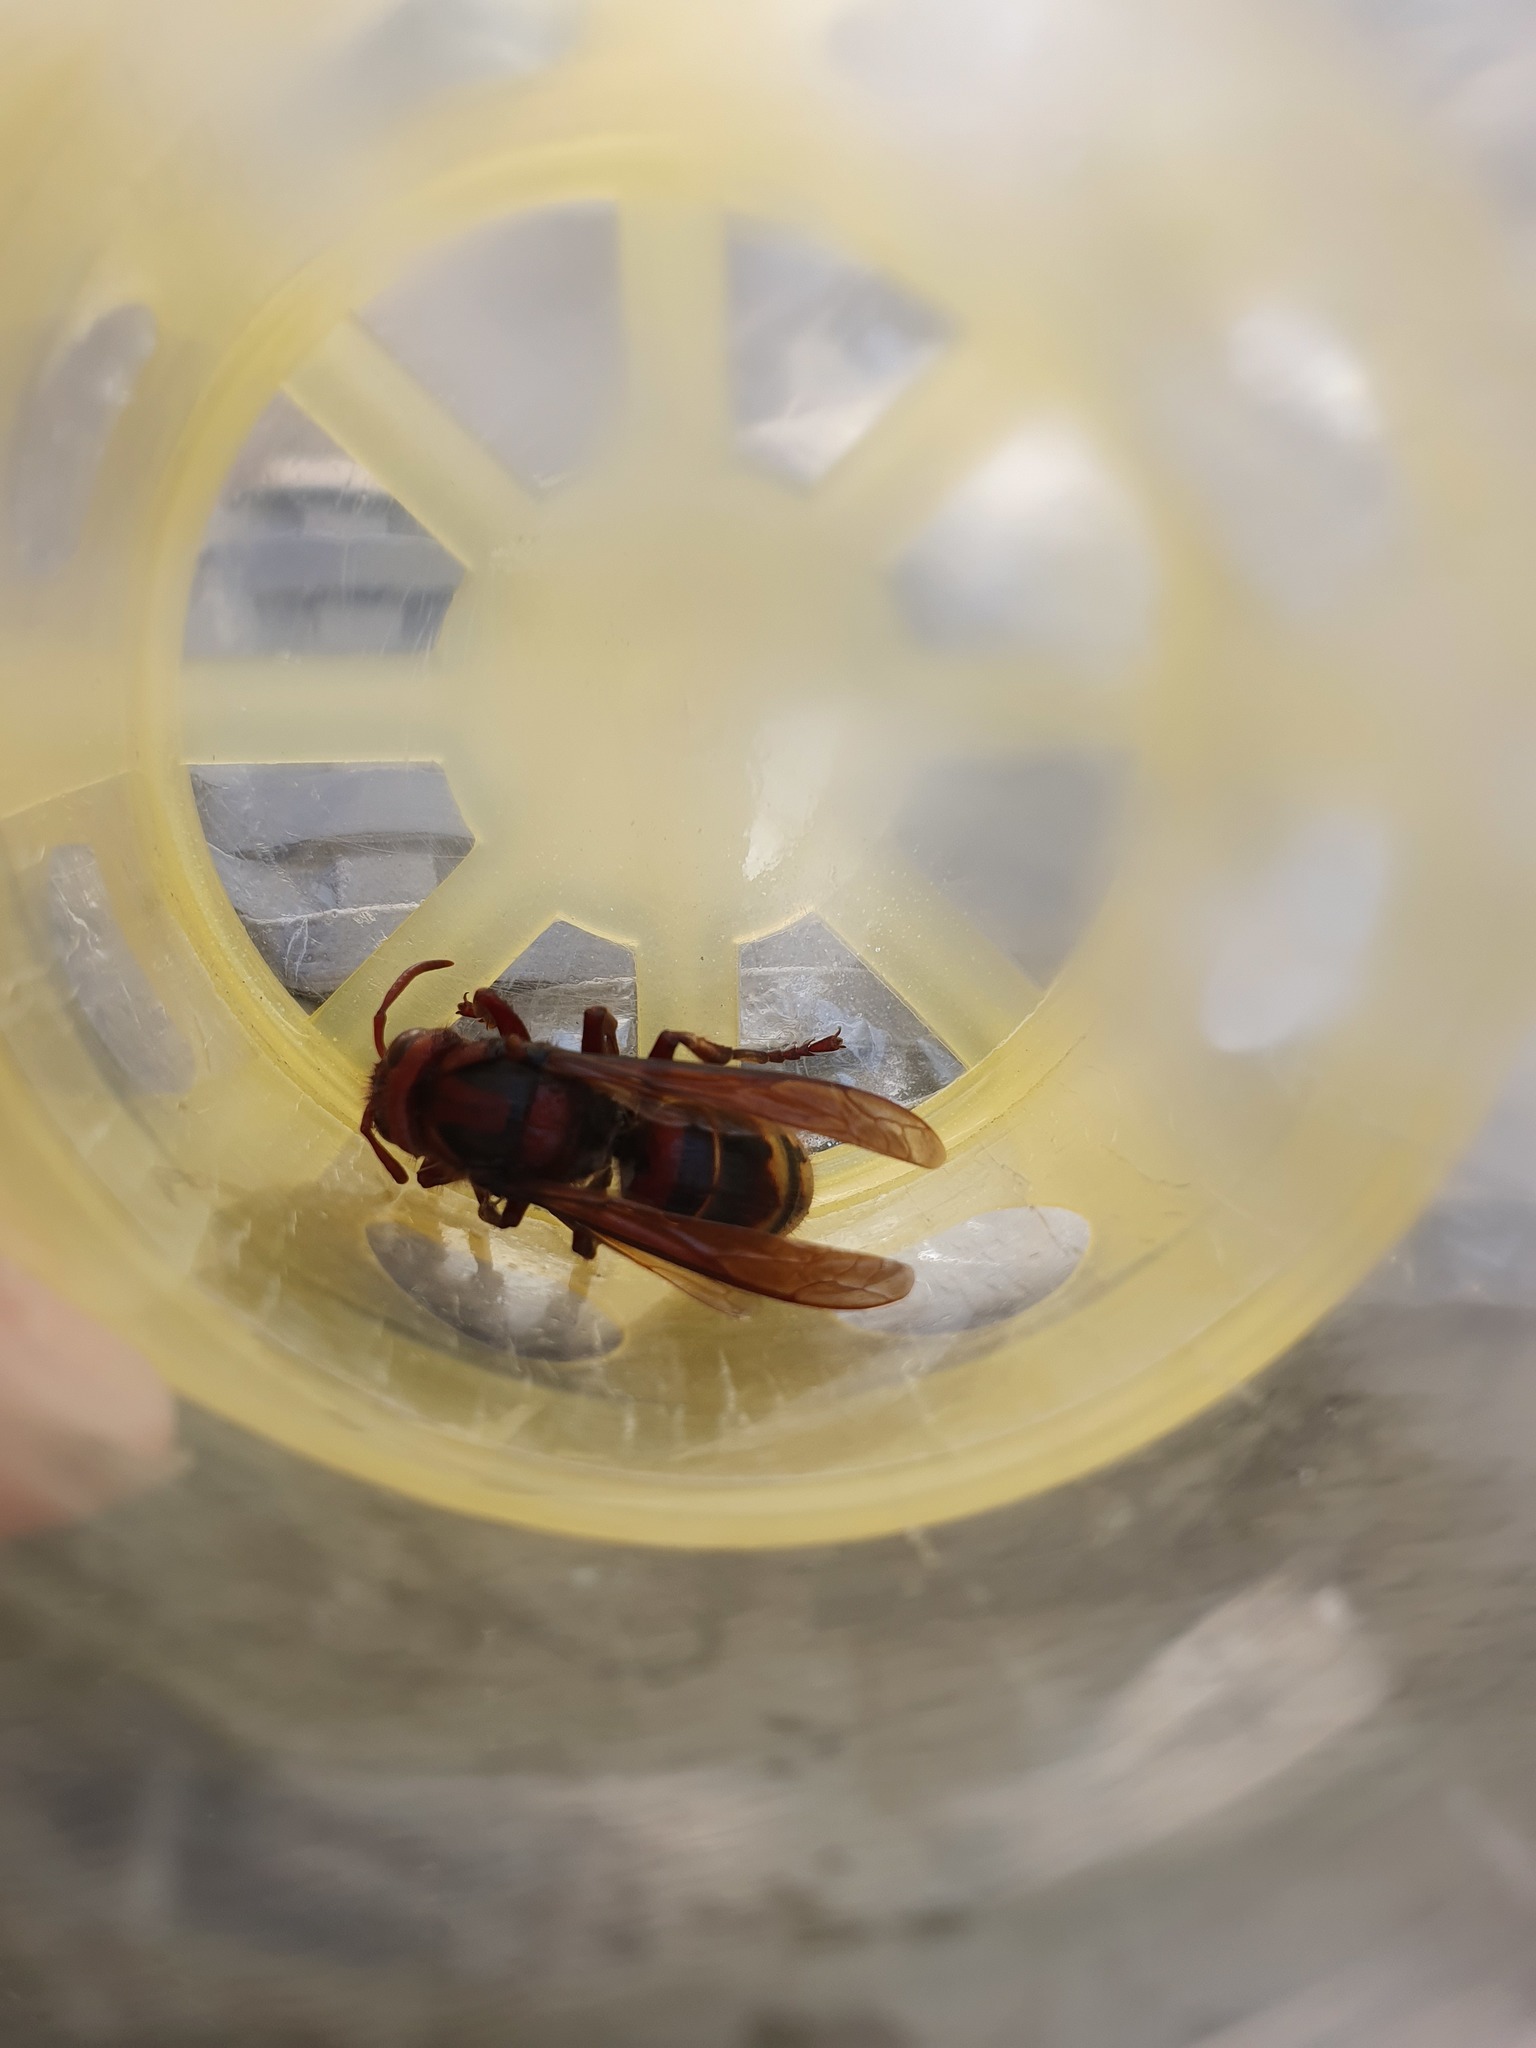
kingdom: Animalia
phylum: Arthropoda
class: Insecta
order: Hymenoptera
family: Vespidae
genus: Vespa
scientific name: Vespa crabro
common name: Hornet
